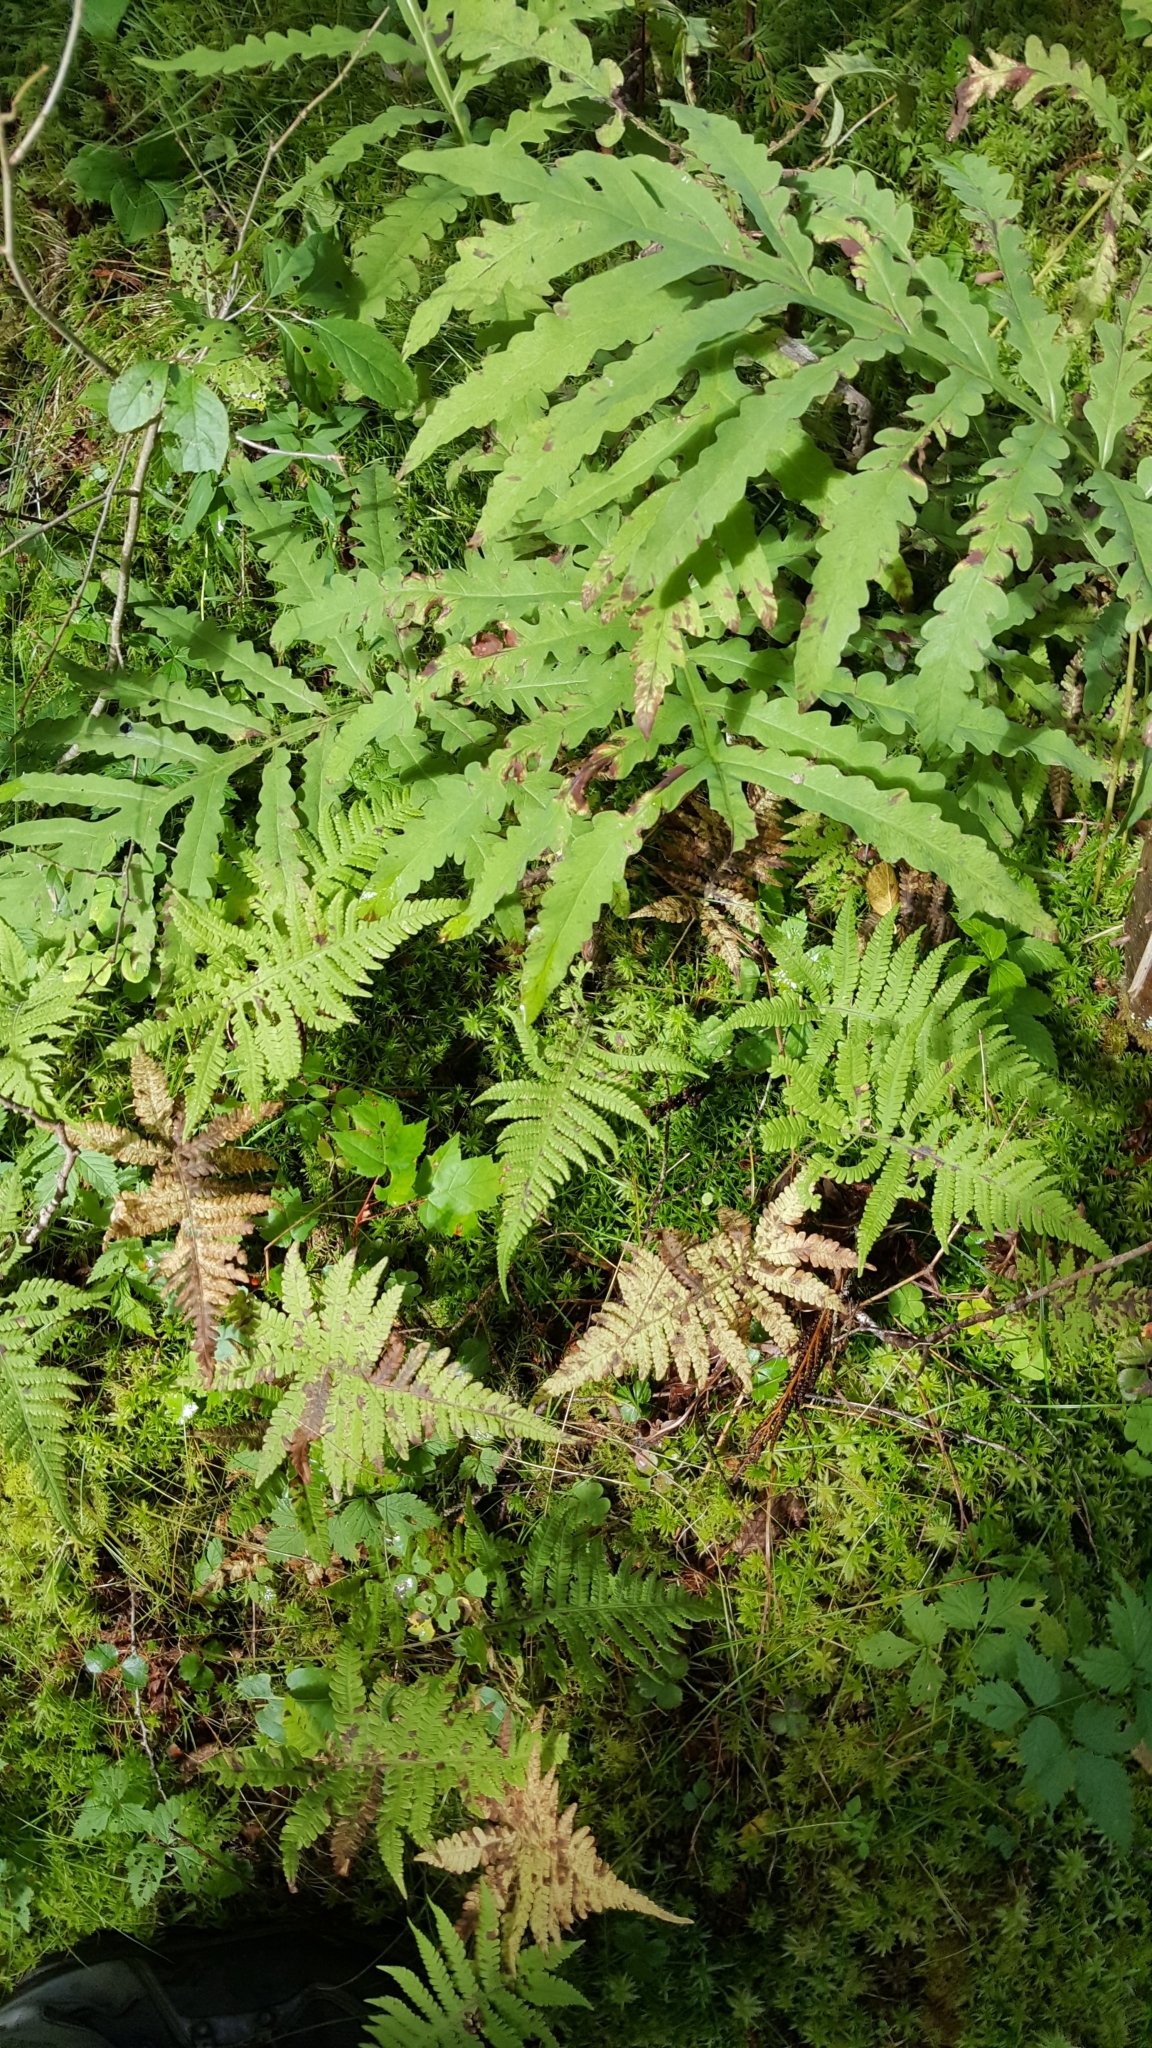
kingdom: Plantae
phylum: Tracheophyta
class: Polypodiopsida
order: Polypodiales
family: Onocleaceae
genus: Onoclea
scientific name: Onoclea sensibilis
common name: Sensitive fern
